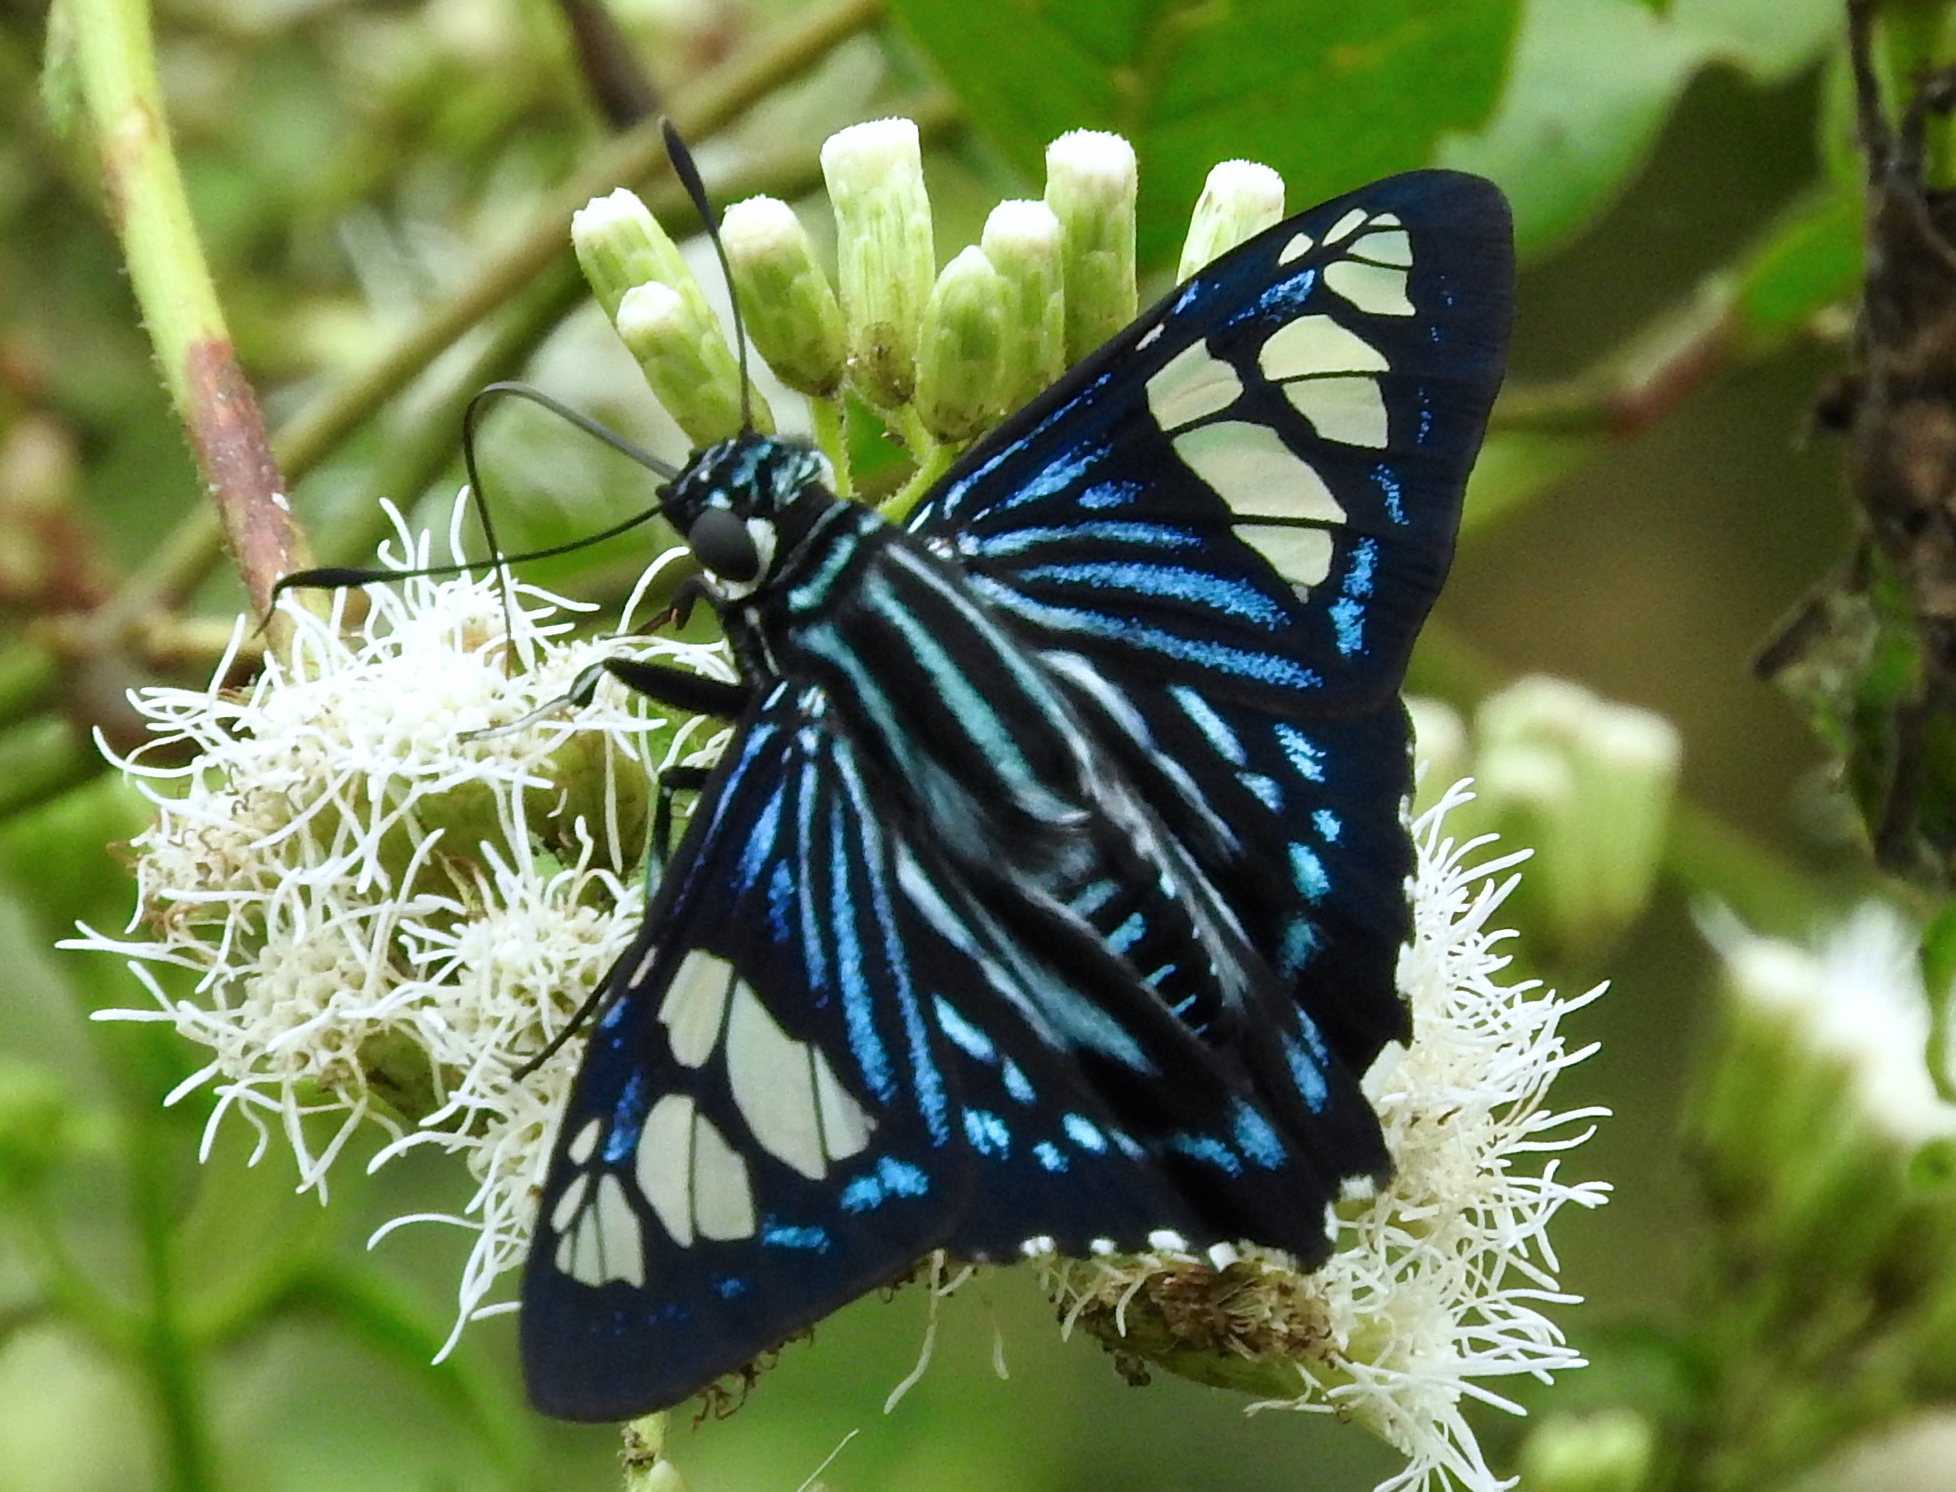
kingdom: Animalia
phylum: Arthropoda
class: Insecta
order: Lepidoptera
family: Hesperiidae
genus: Phocides
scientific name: Phocides pigmalion
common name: Mangrove skipper
